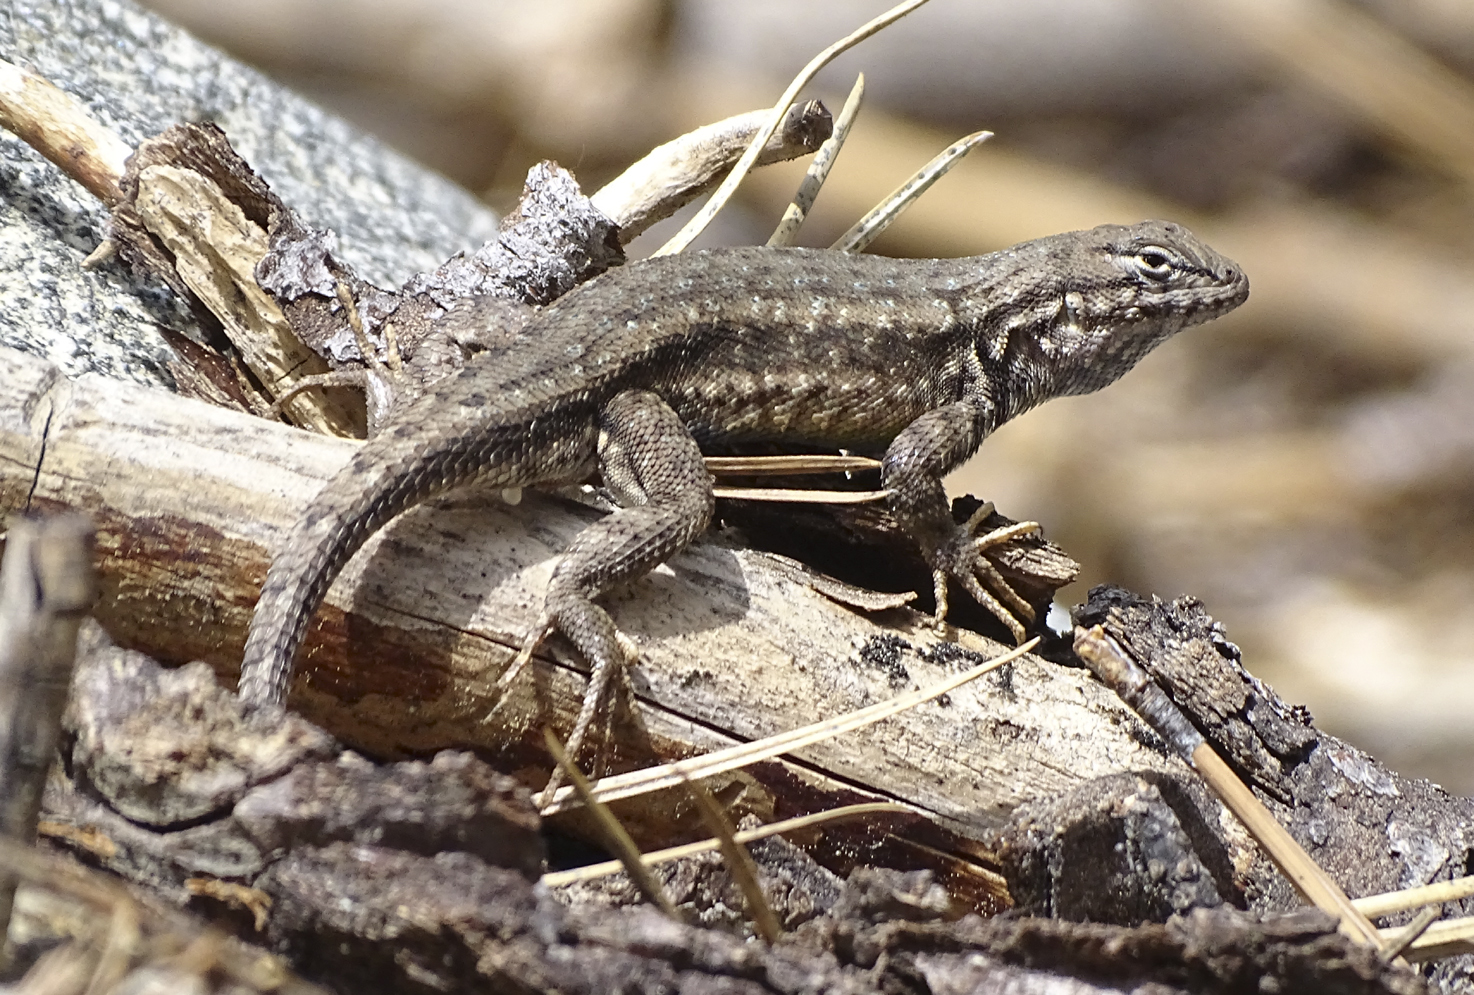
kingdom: Animalia
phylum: Chordata
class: Squamata
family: Phrynosomatidae
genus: Sceloporus
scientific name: Sceloporus graciosus
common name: Sagebrush lizard
